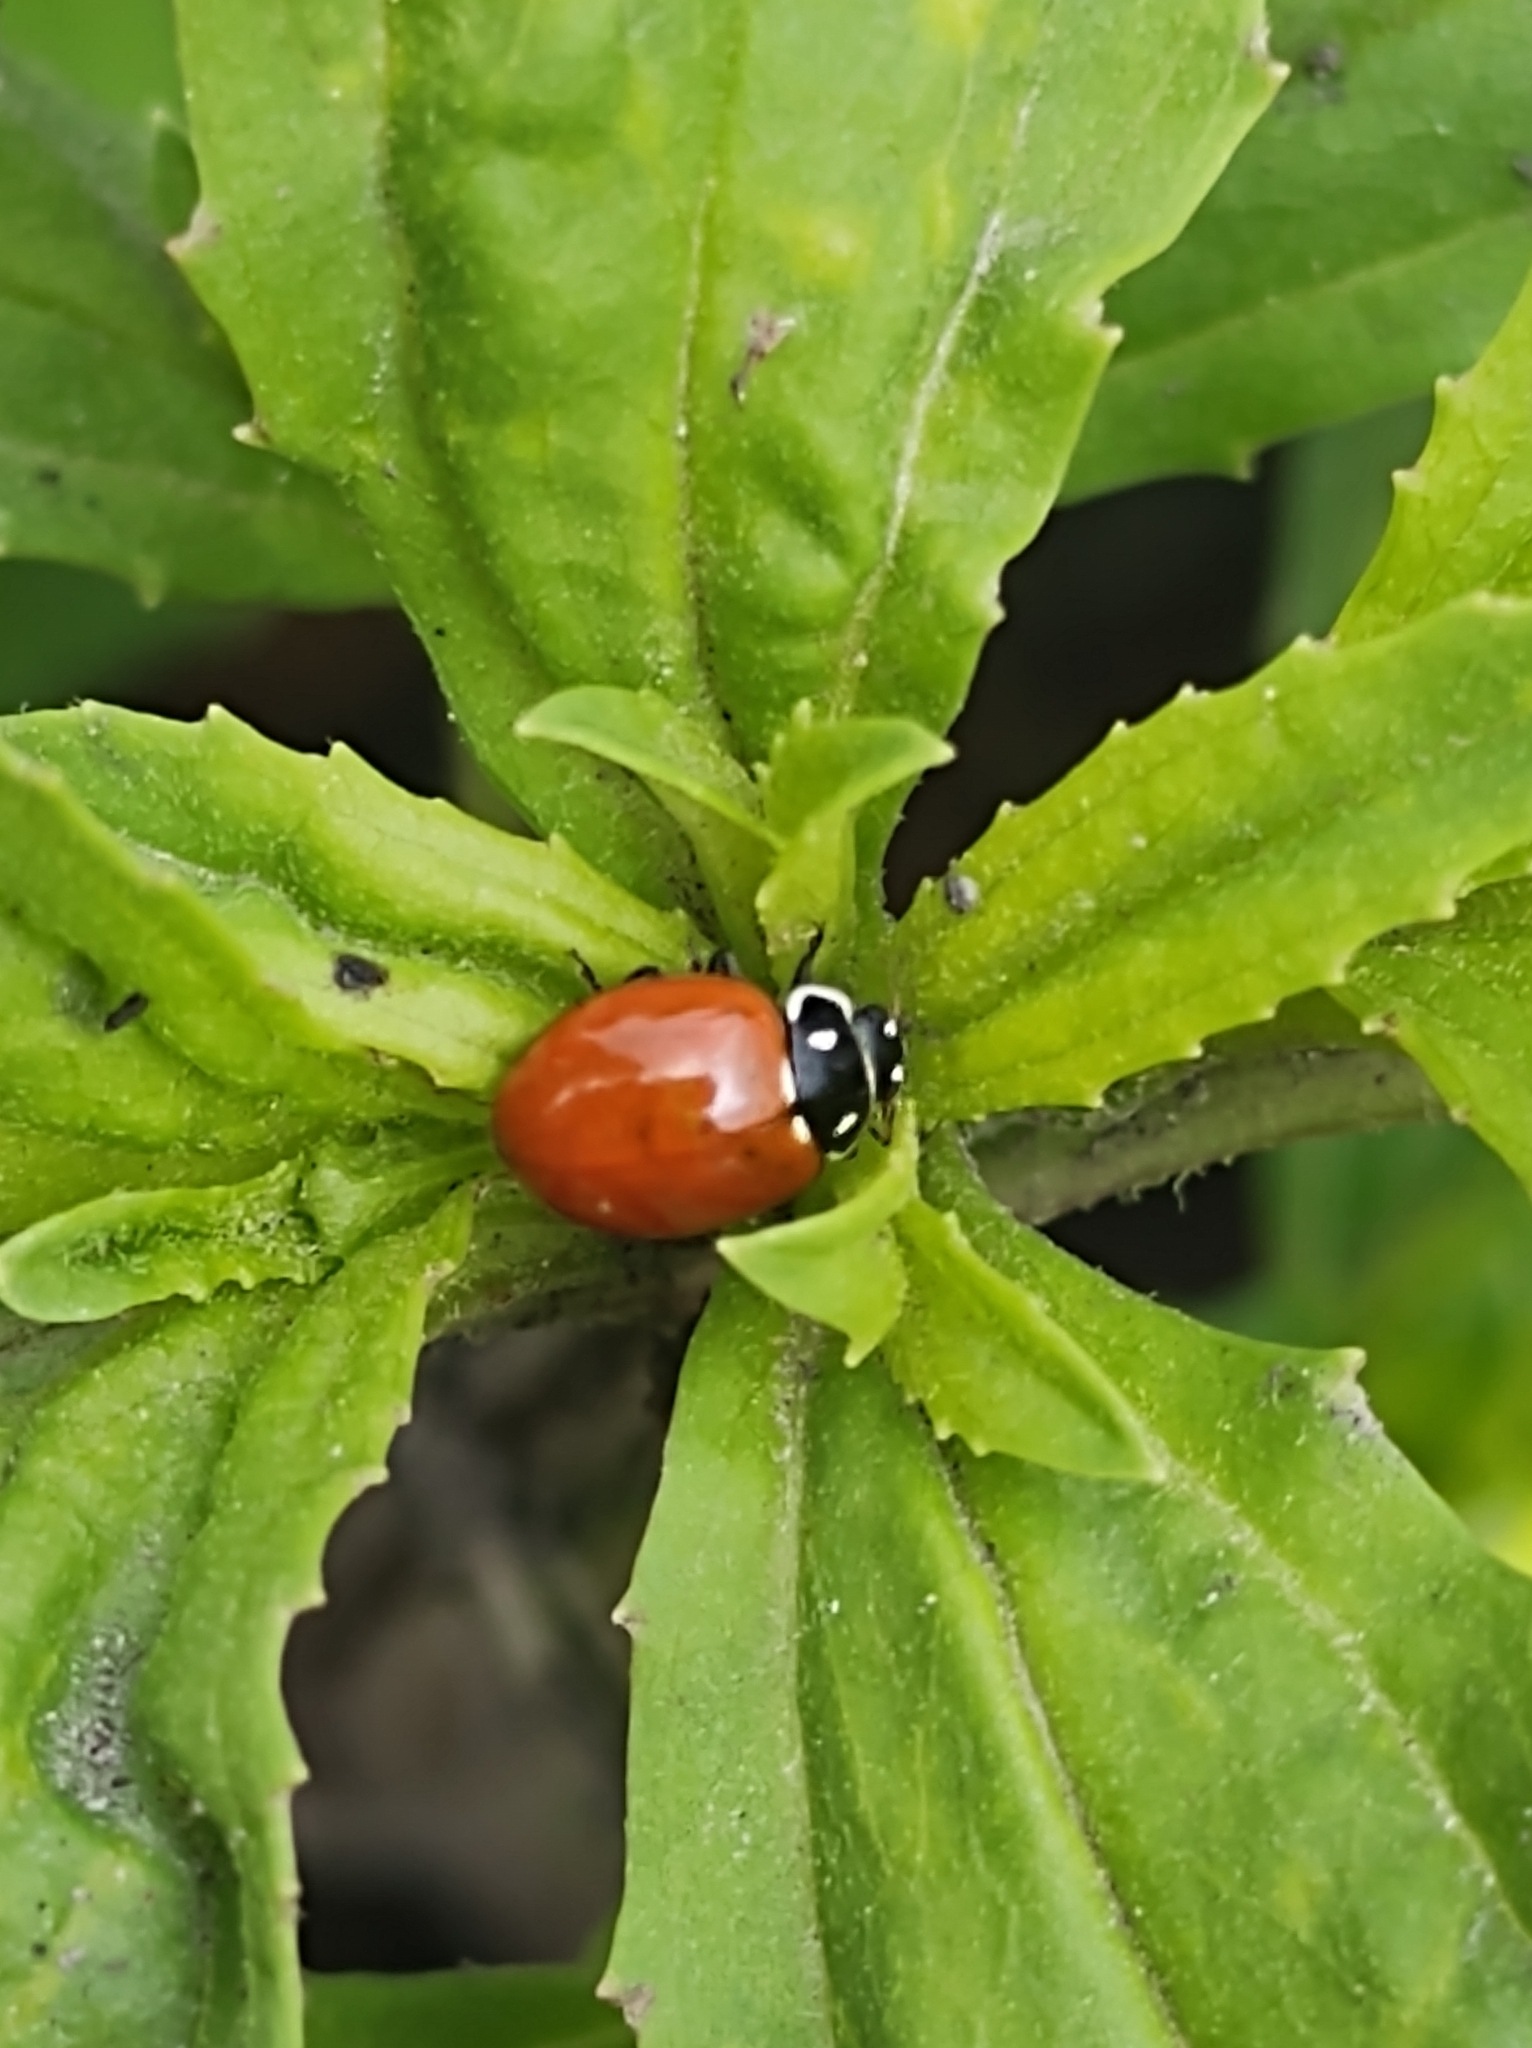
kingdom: Animalia
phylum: Arthropoda
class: Insecta
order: Coleoptera
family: Coccinellidae
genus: Cycloneda
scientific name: Cycloneda emarginata
